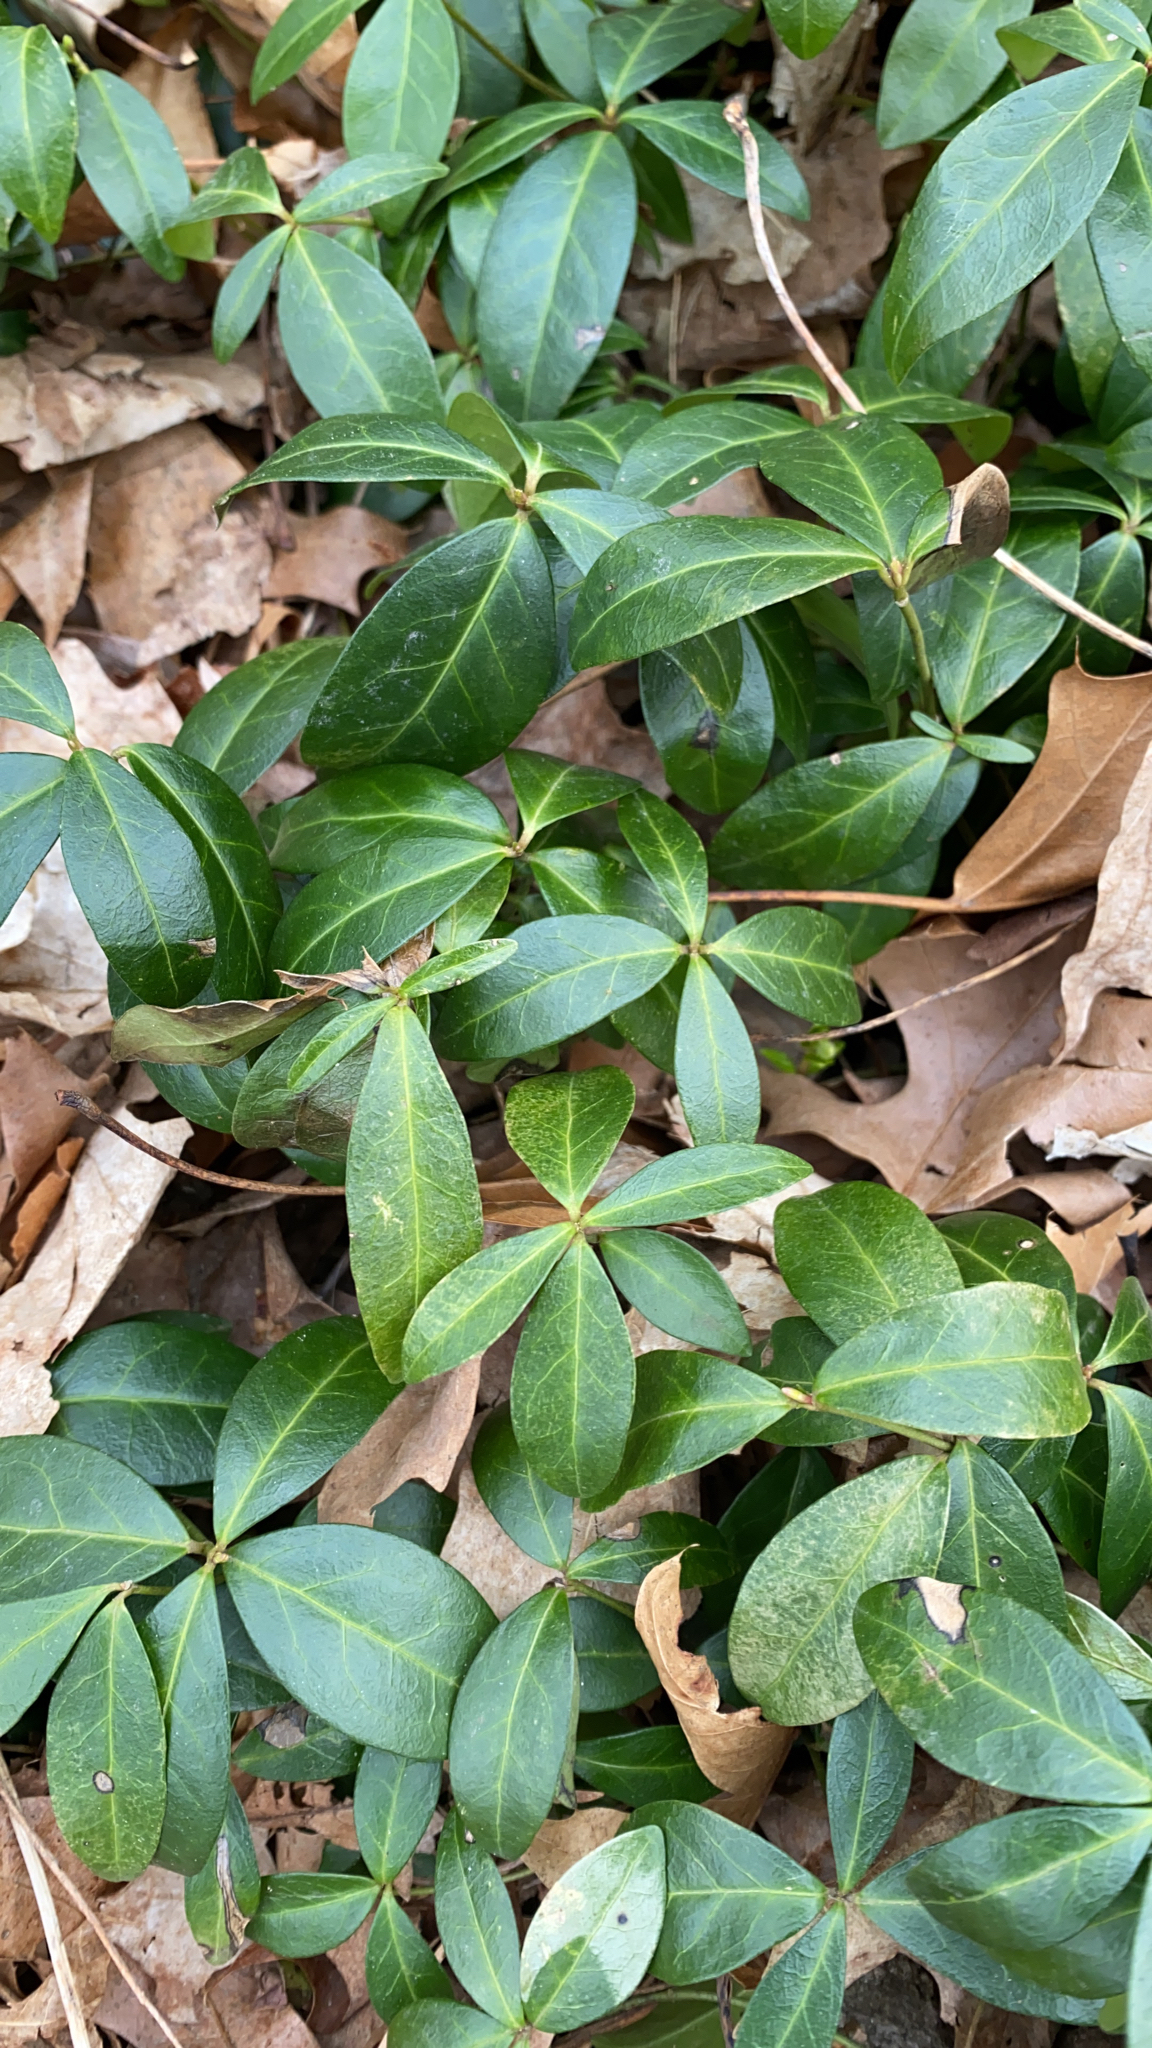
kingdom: Plantae
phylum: Tracheophyta
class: Magnoliopsida
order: Gentianales
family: Apocynaceae
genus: Vinca
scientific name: Vinca minor
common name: Lesser periwinkle
